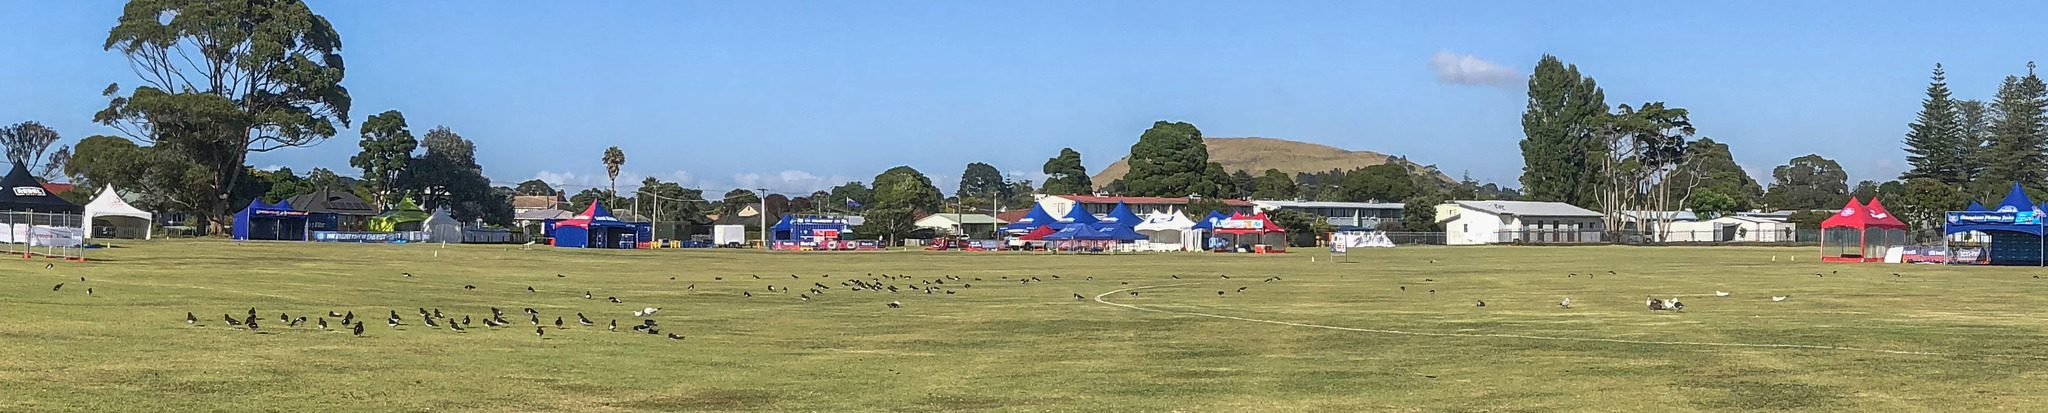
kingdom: Animalia
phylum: Chordata
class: Aves
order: Charadriiformes
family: Haematopodidae
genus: Haematopus
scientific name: Haematopus finschi
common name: South island oystercatcher
